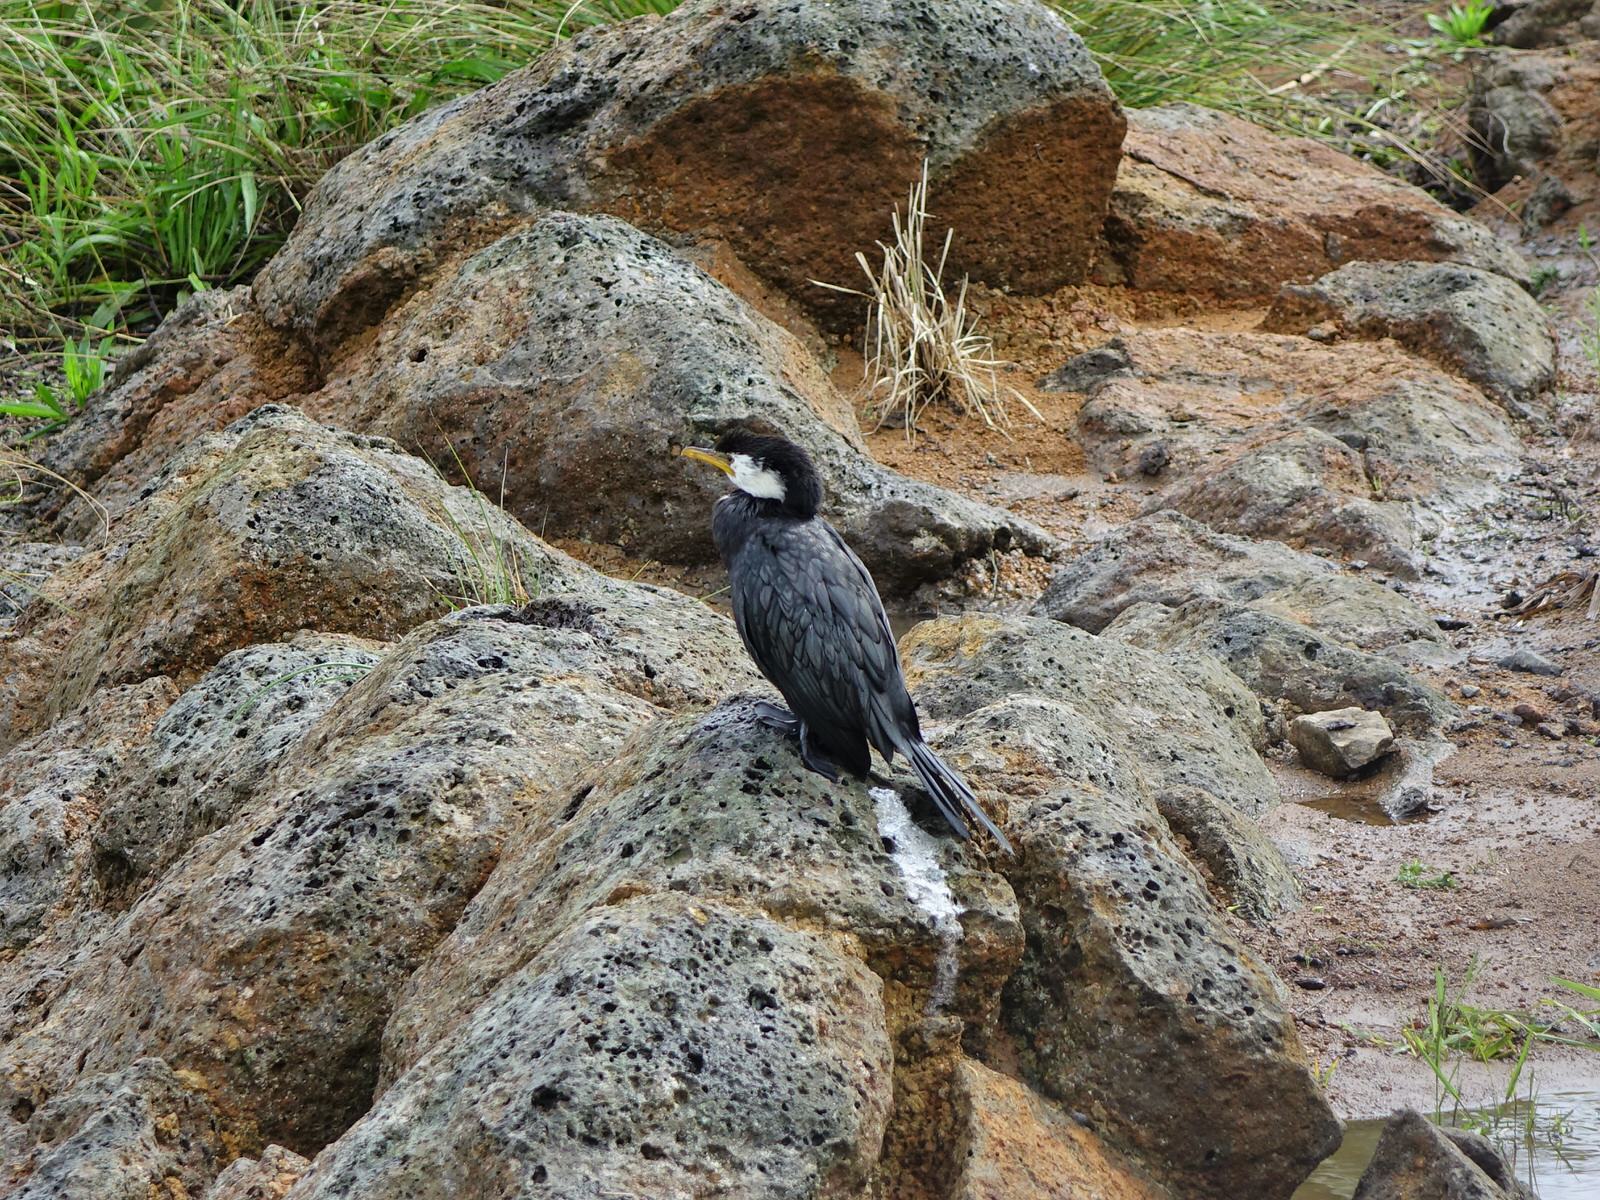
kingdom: Animalia
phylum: Chordata
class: Aves
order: Suliformes
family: Phalacrocoracidae
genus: Microcarbo
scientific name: Microcarbo melanoleucos
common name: Little pied cormorant
